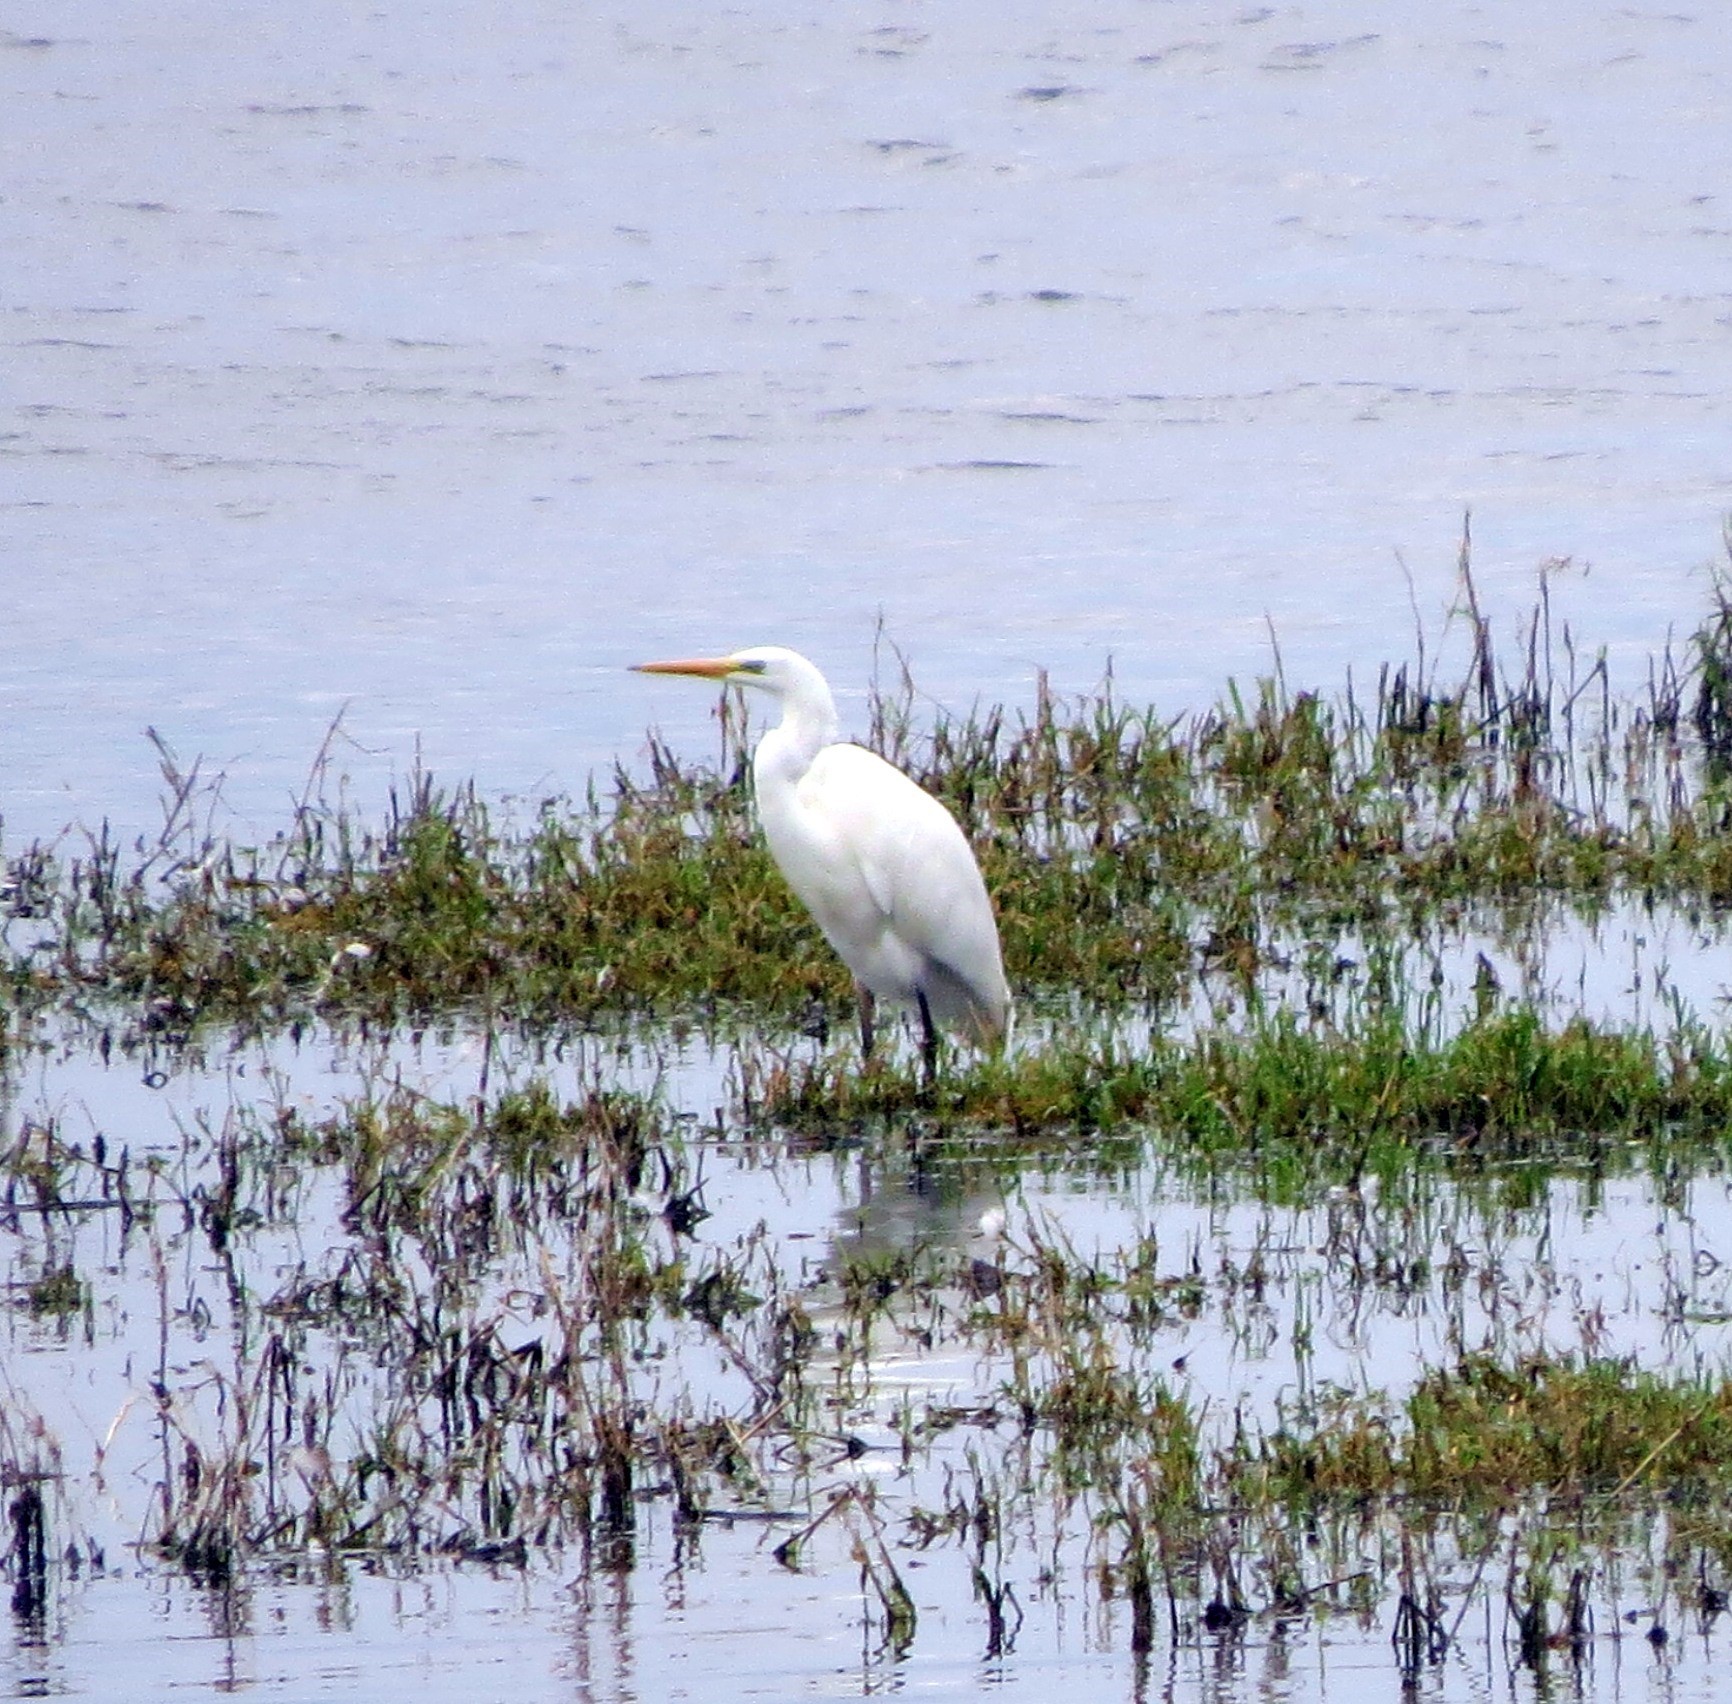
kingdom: Animalia
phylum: Chordata
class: Aves
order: Pelecaniformes
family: Ardeidae
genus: Ardea
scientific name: Ardea alba
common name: Great egret
